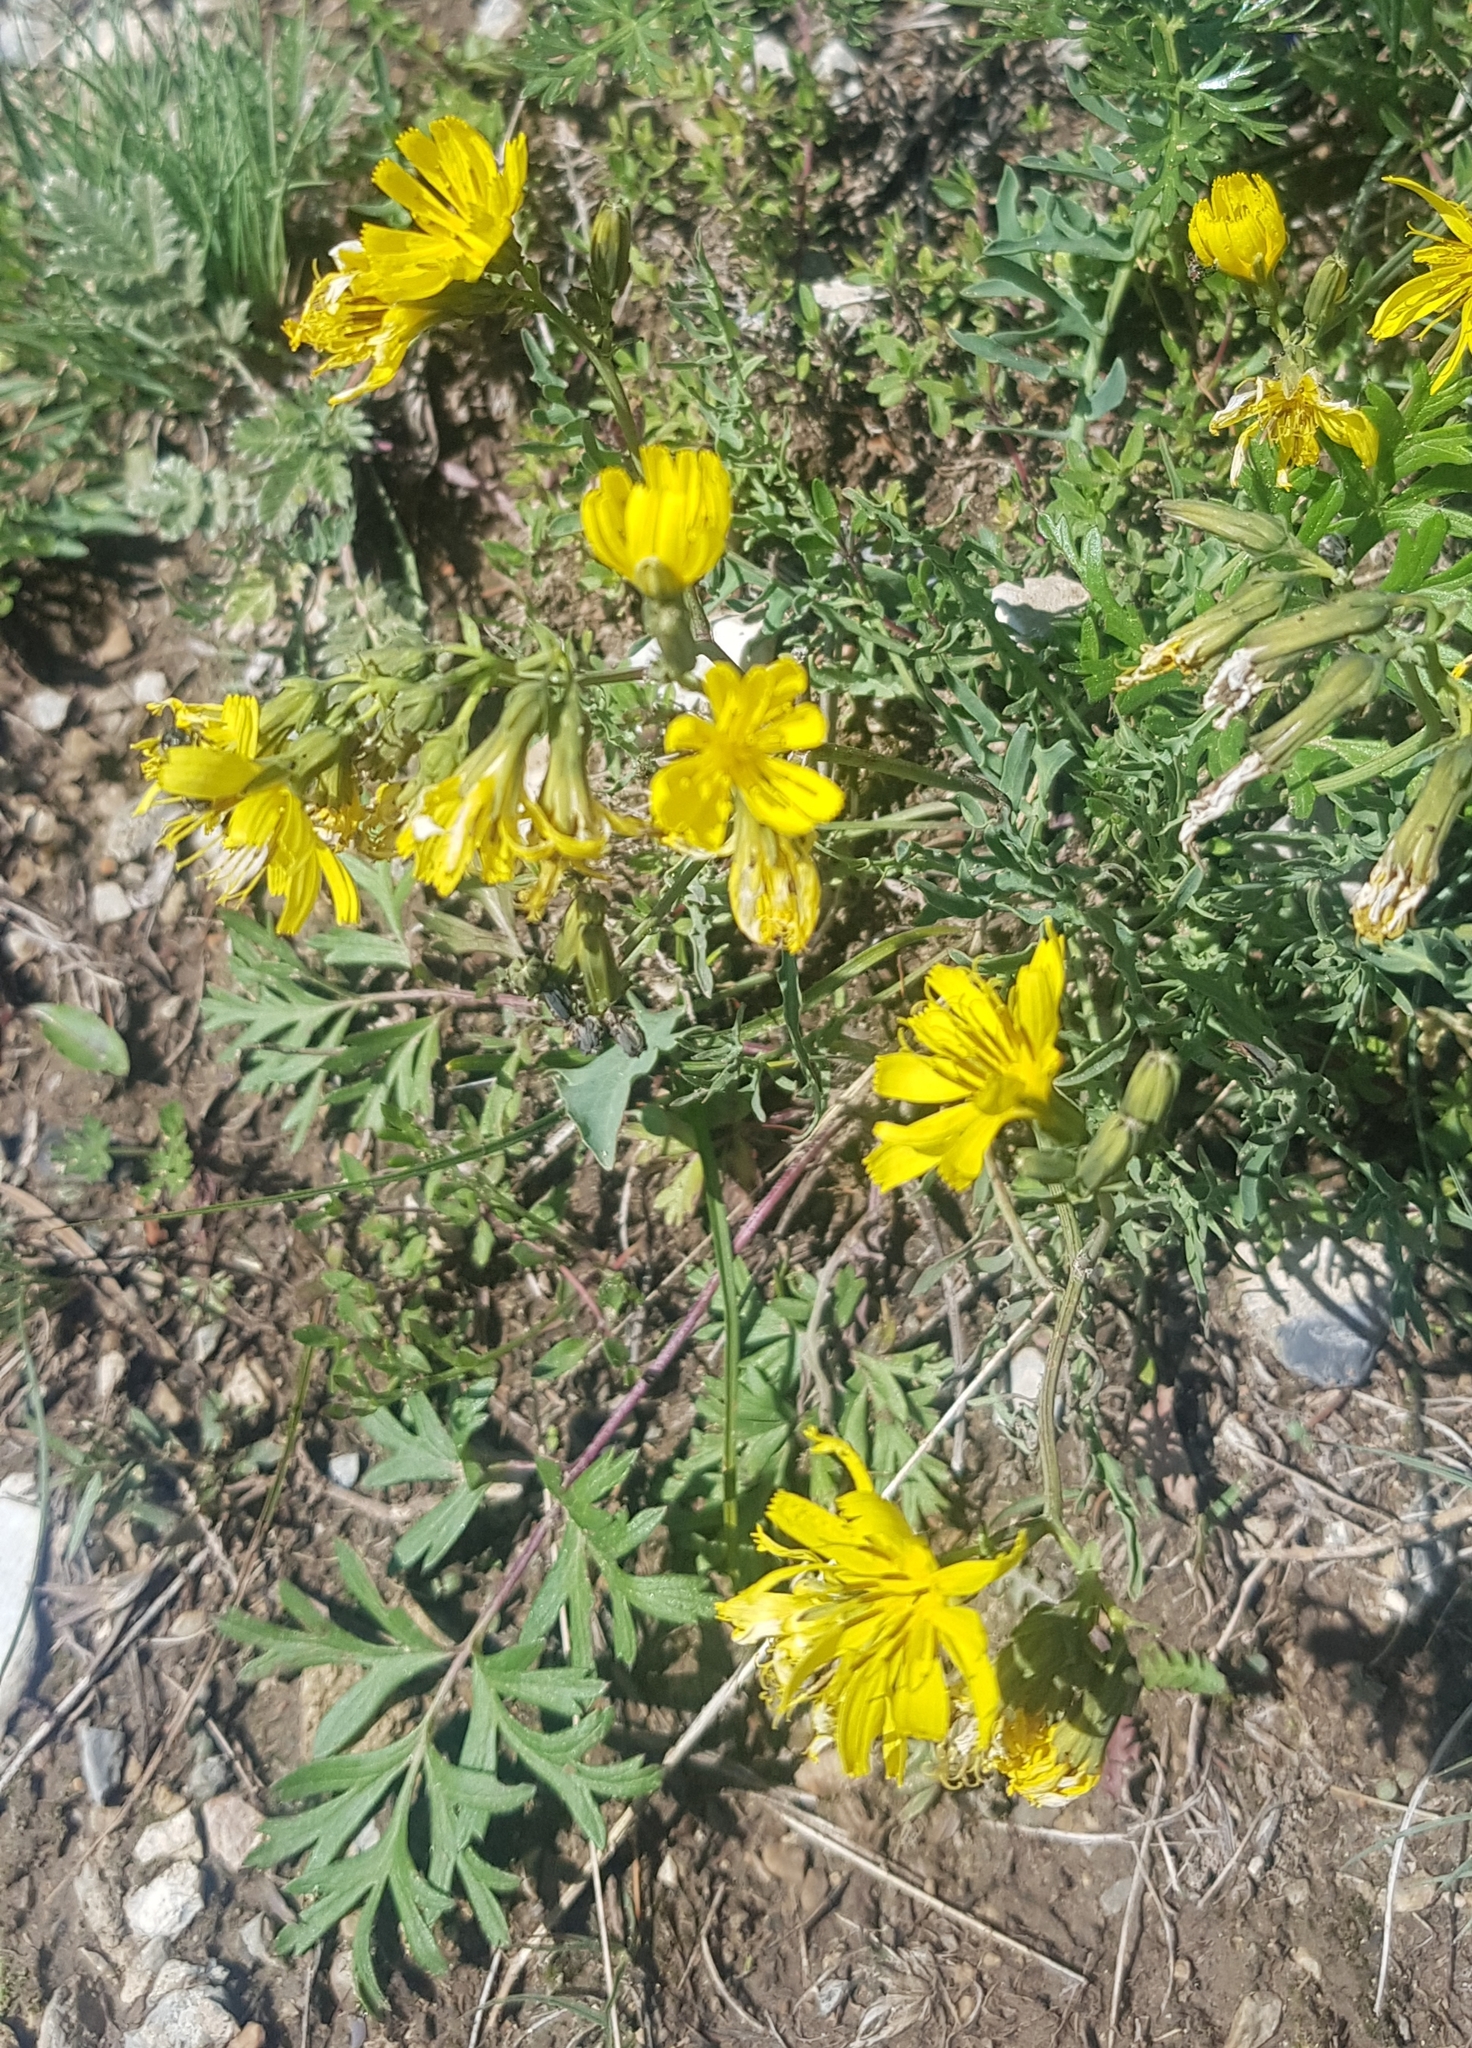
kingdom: Plantae
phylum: Tracheophyta
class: Magnoliopsida
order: Asterales
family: Asteraceae
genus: Scorzonera
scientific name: Scorzonera radiata
